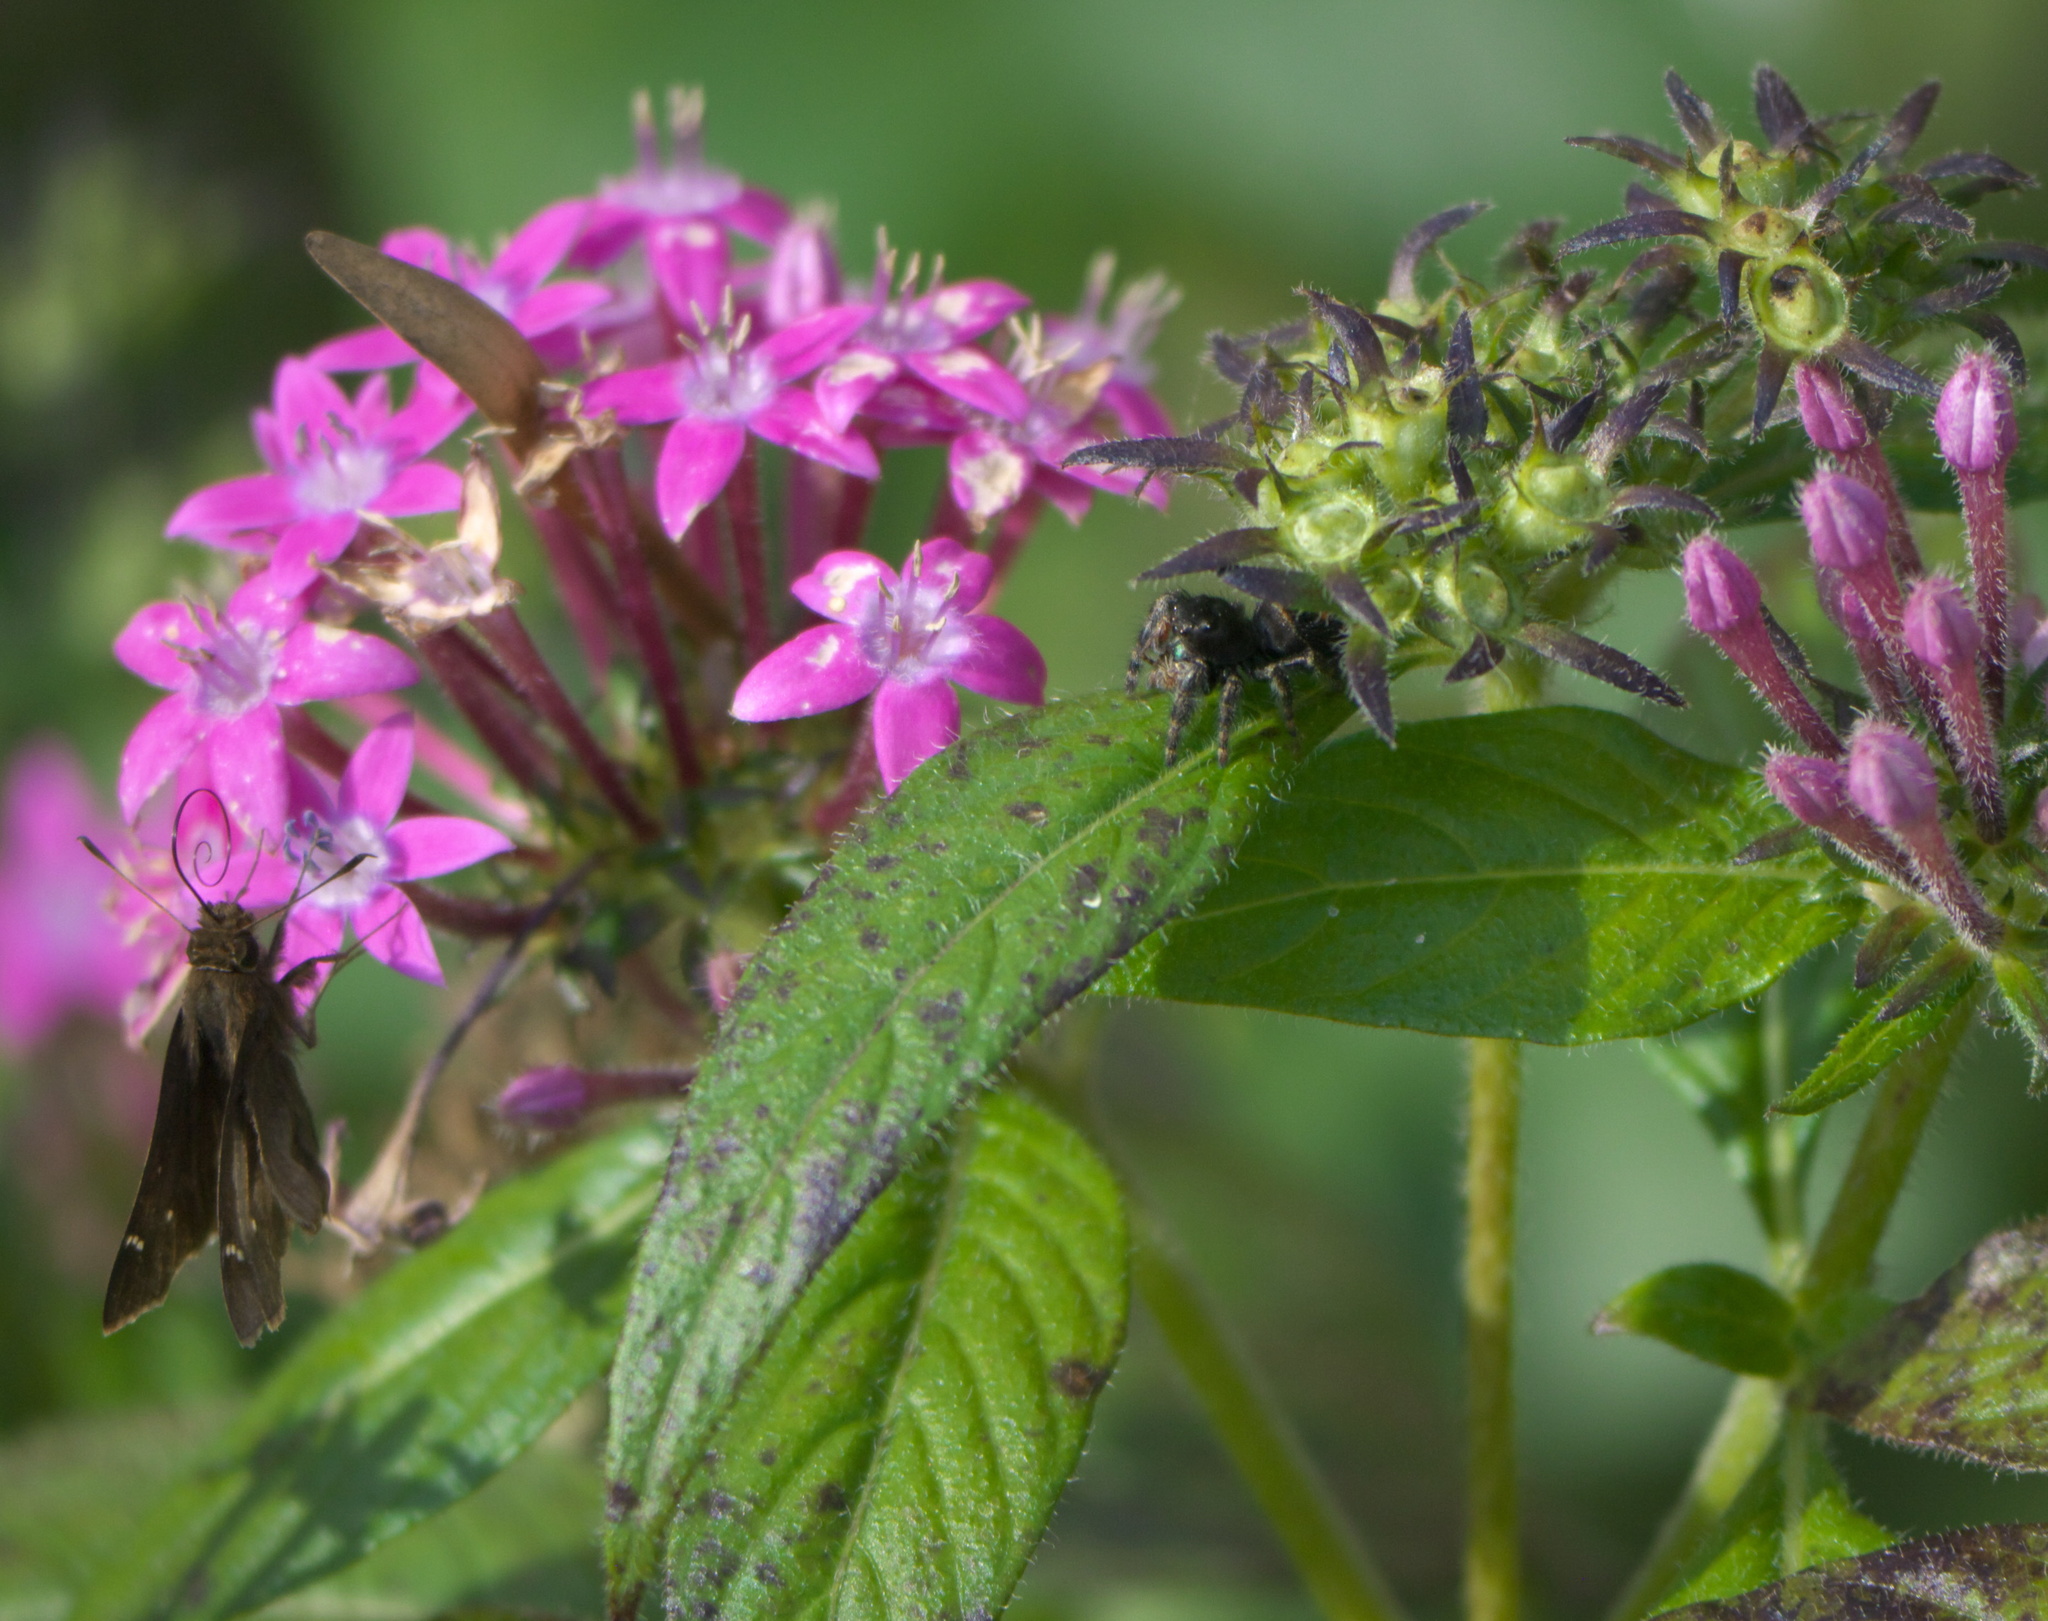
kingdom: Animalia
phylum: Arthropoda
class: Arachnida
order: Araneae
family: Salticidae
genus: Phidippus
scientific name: Phidippus audax
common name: Bold jumper
